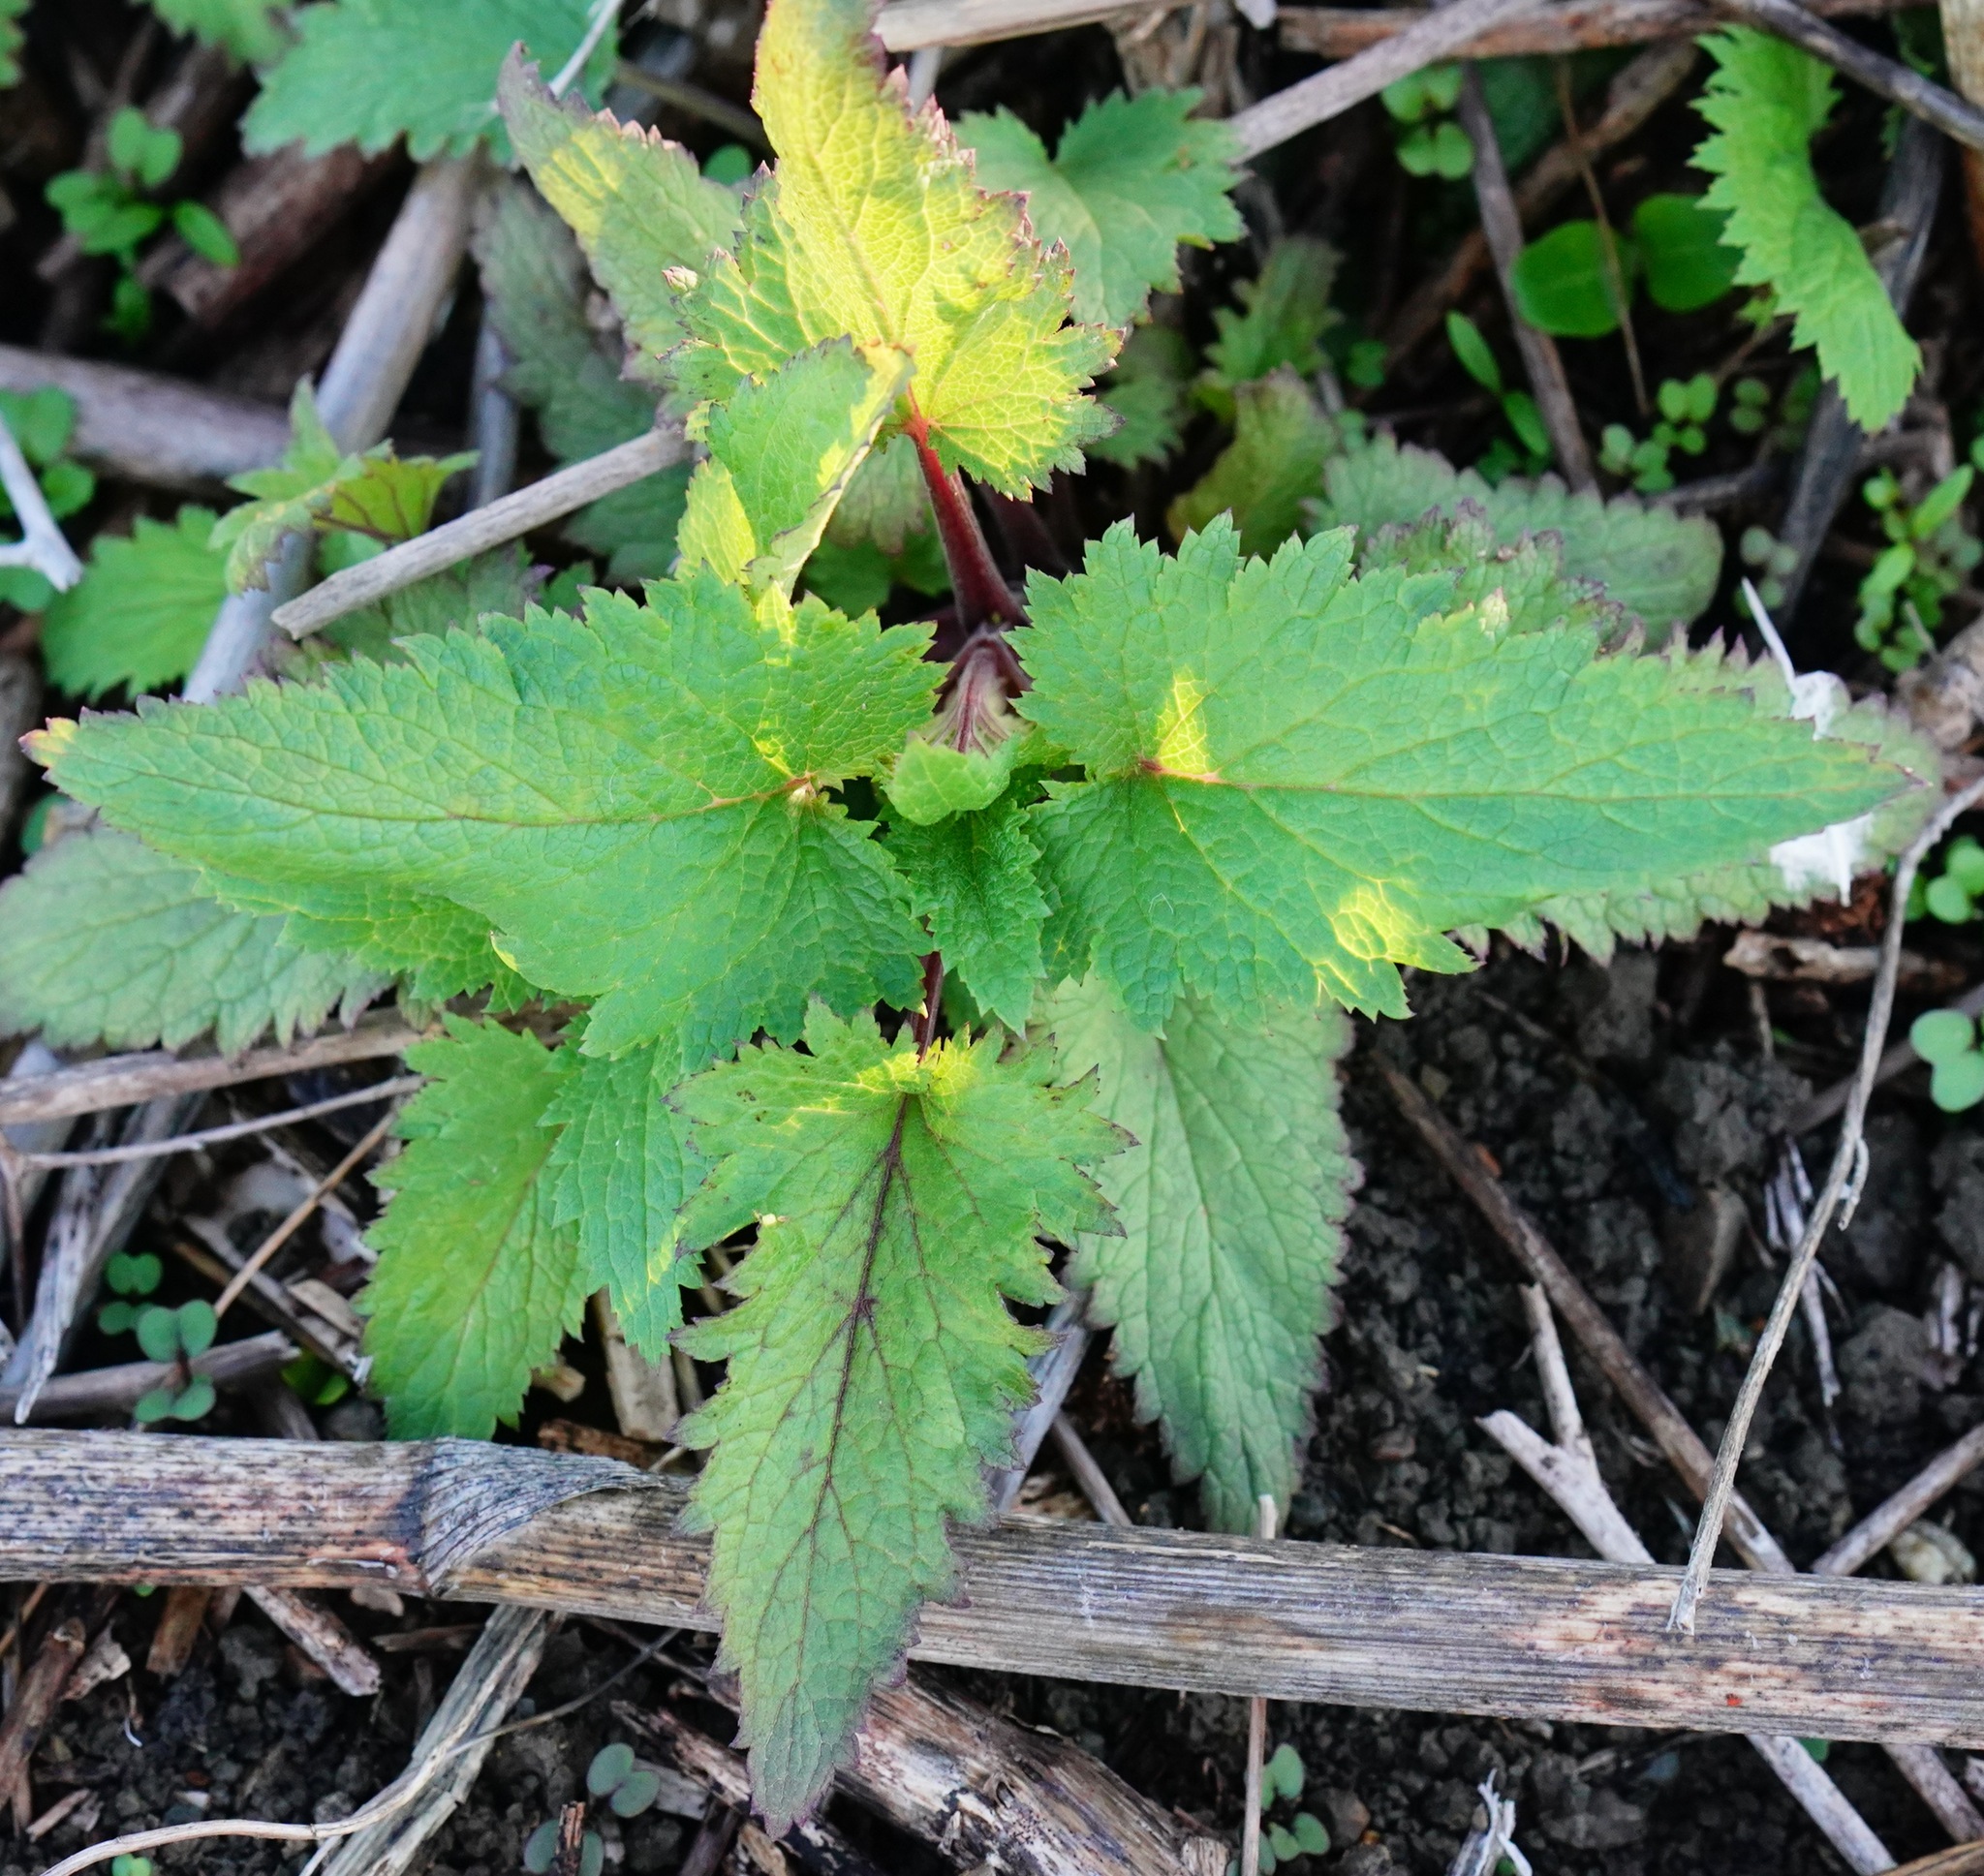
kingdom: Plantae
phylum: Tracheophyta
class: Magnoliopsida
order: Lamiales
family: Scrophulariaceae
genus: Scrophularia
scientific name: Scrophularia californica
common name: California figwort
